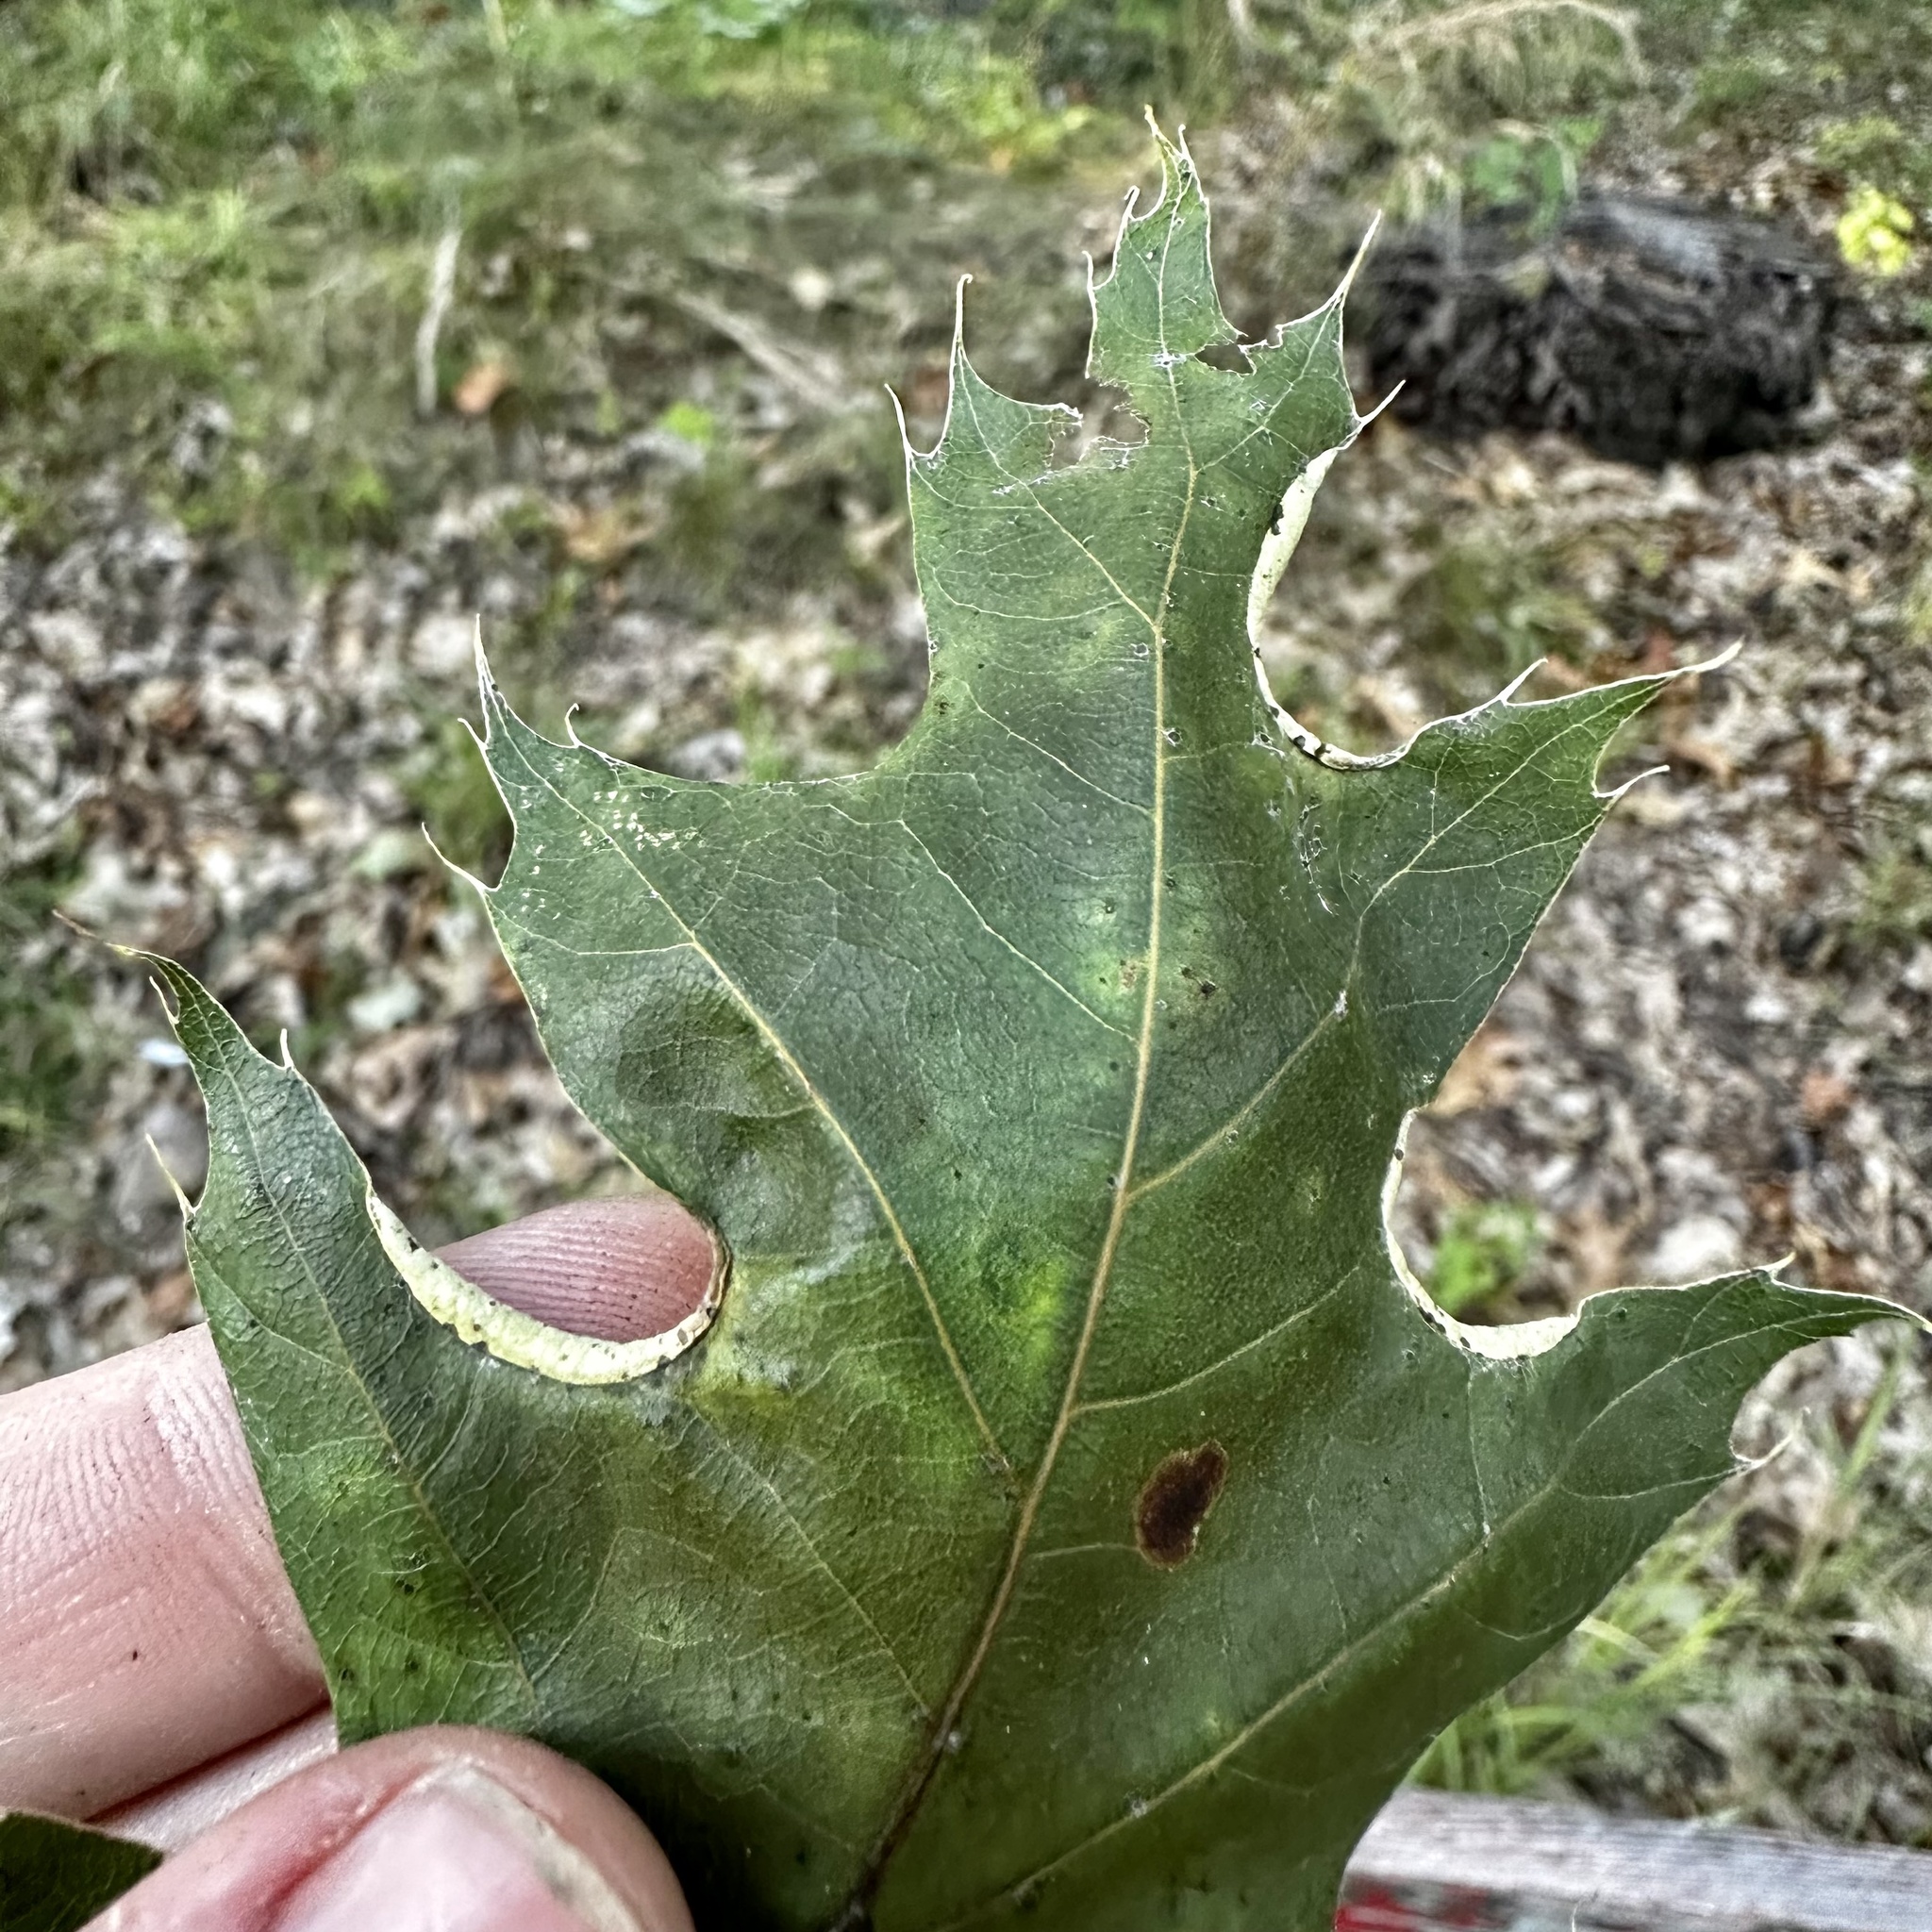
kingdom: Animalia
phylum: Arthropoda
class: Insecta
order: Diptera
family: Cecidomyiidae
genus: Macrodiplosis
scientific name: Macrodiplosis erubescens
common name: Marginal leaf fold gall midge
